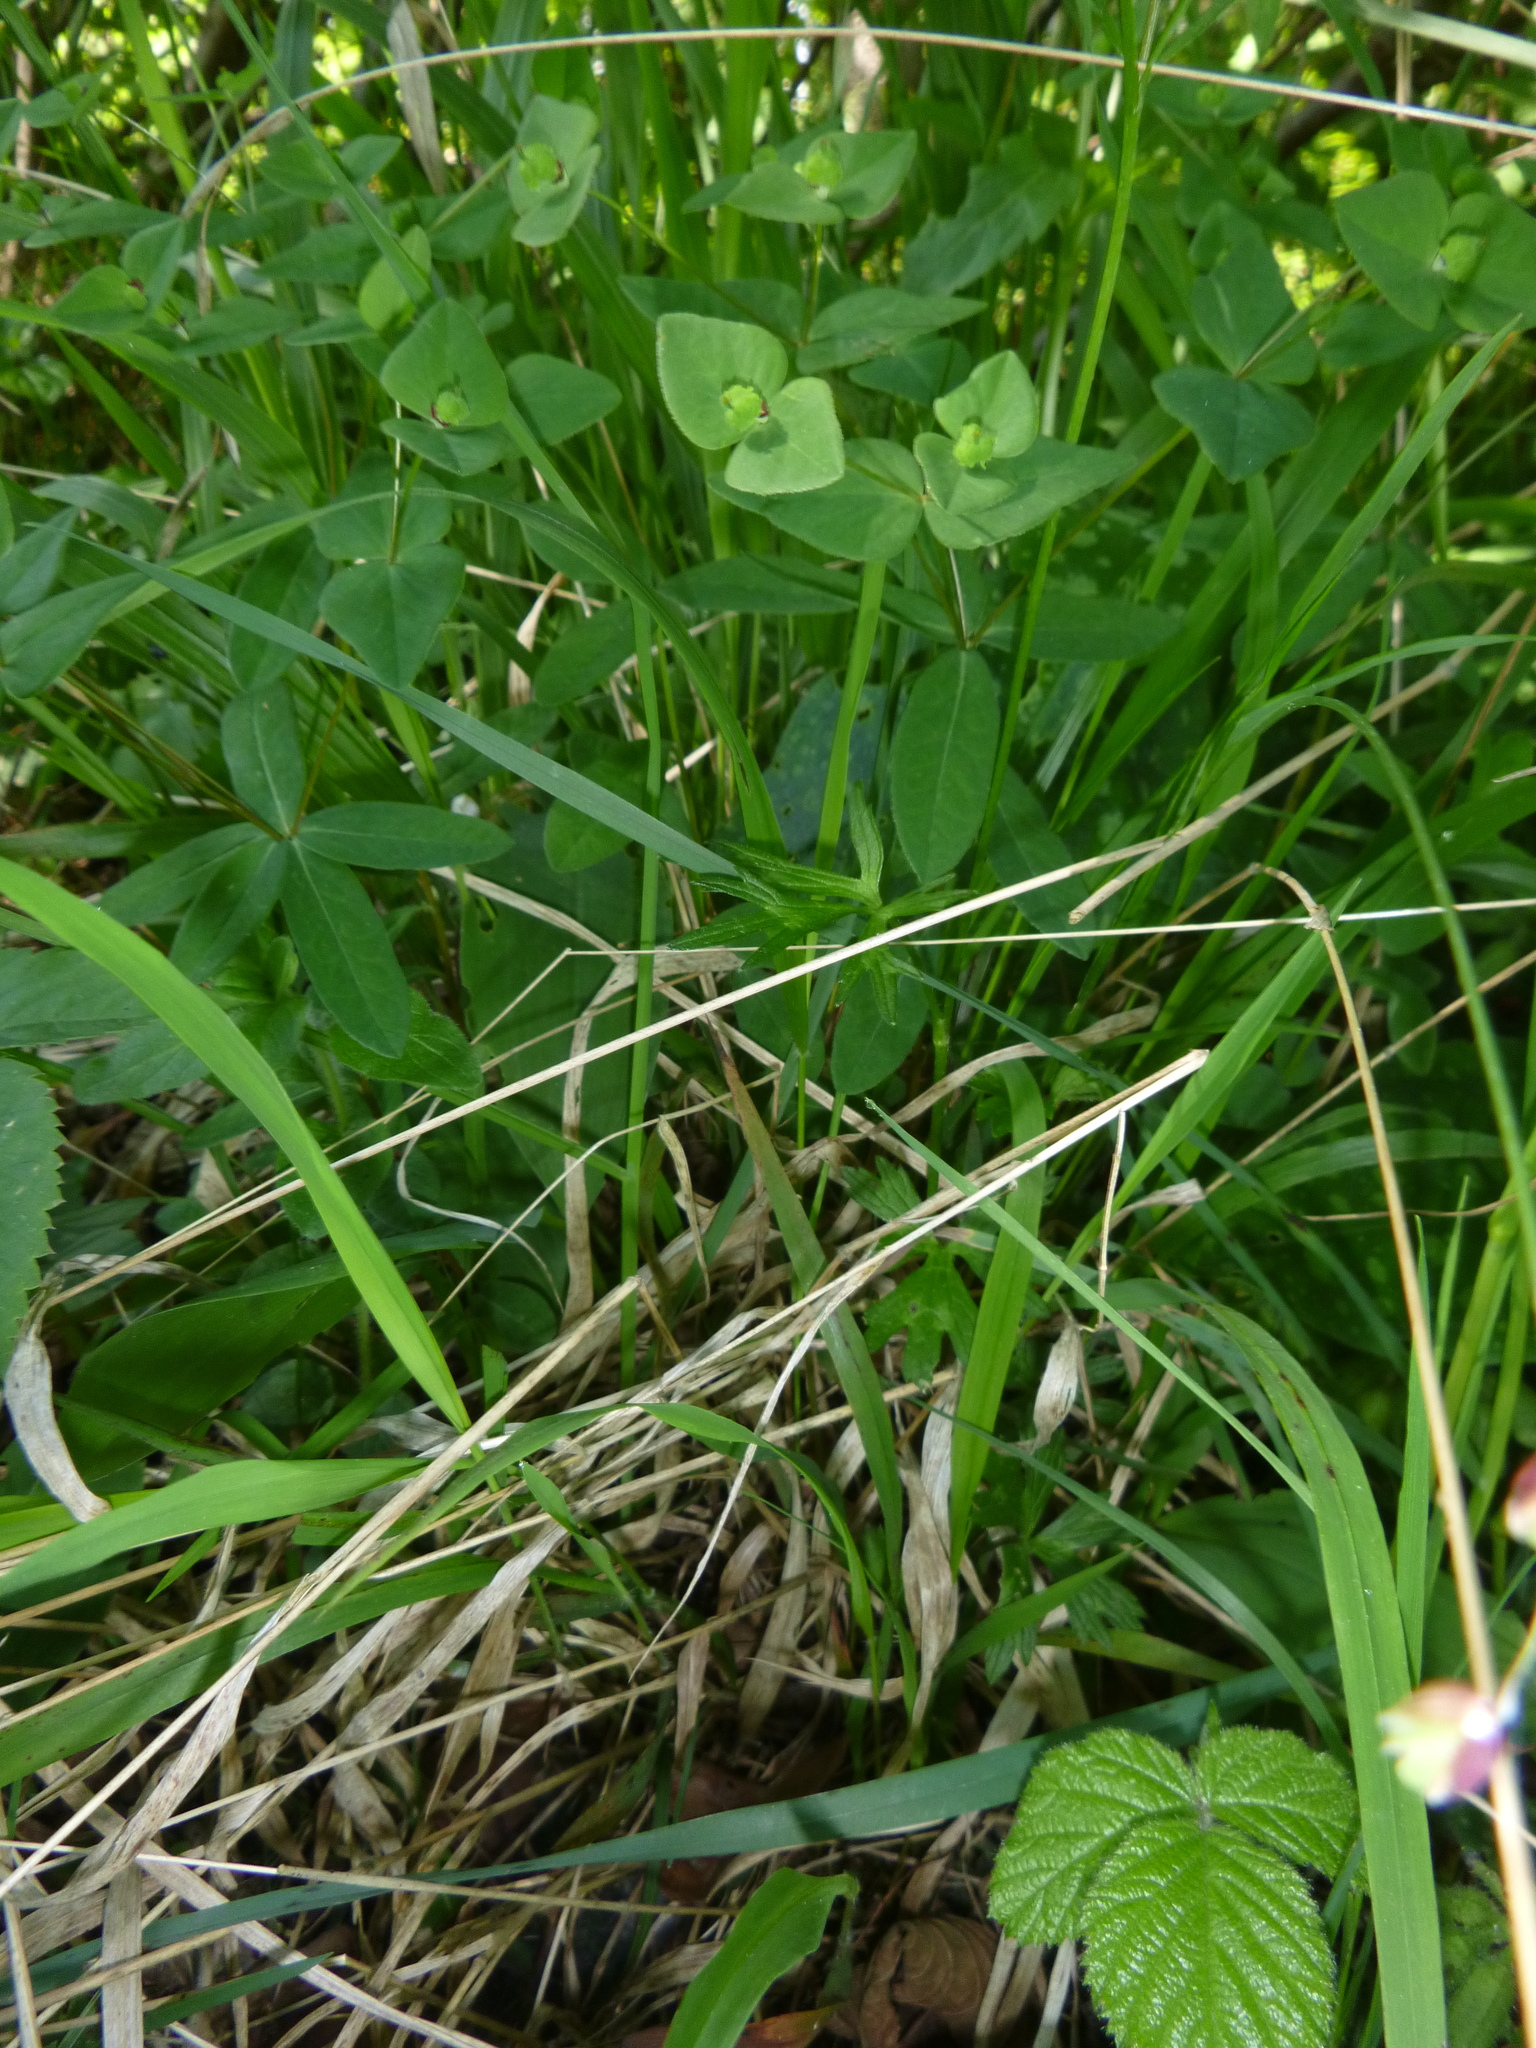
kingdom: Plantae
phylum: Tracheophyta
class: Magnoliopsida
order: Malpighiales
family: Euphorbiaceae
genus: Euphorbia
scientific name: Euphorbia dulcis
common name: Sweet spurge
